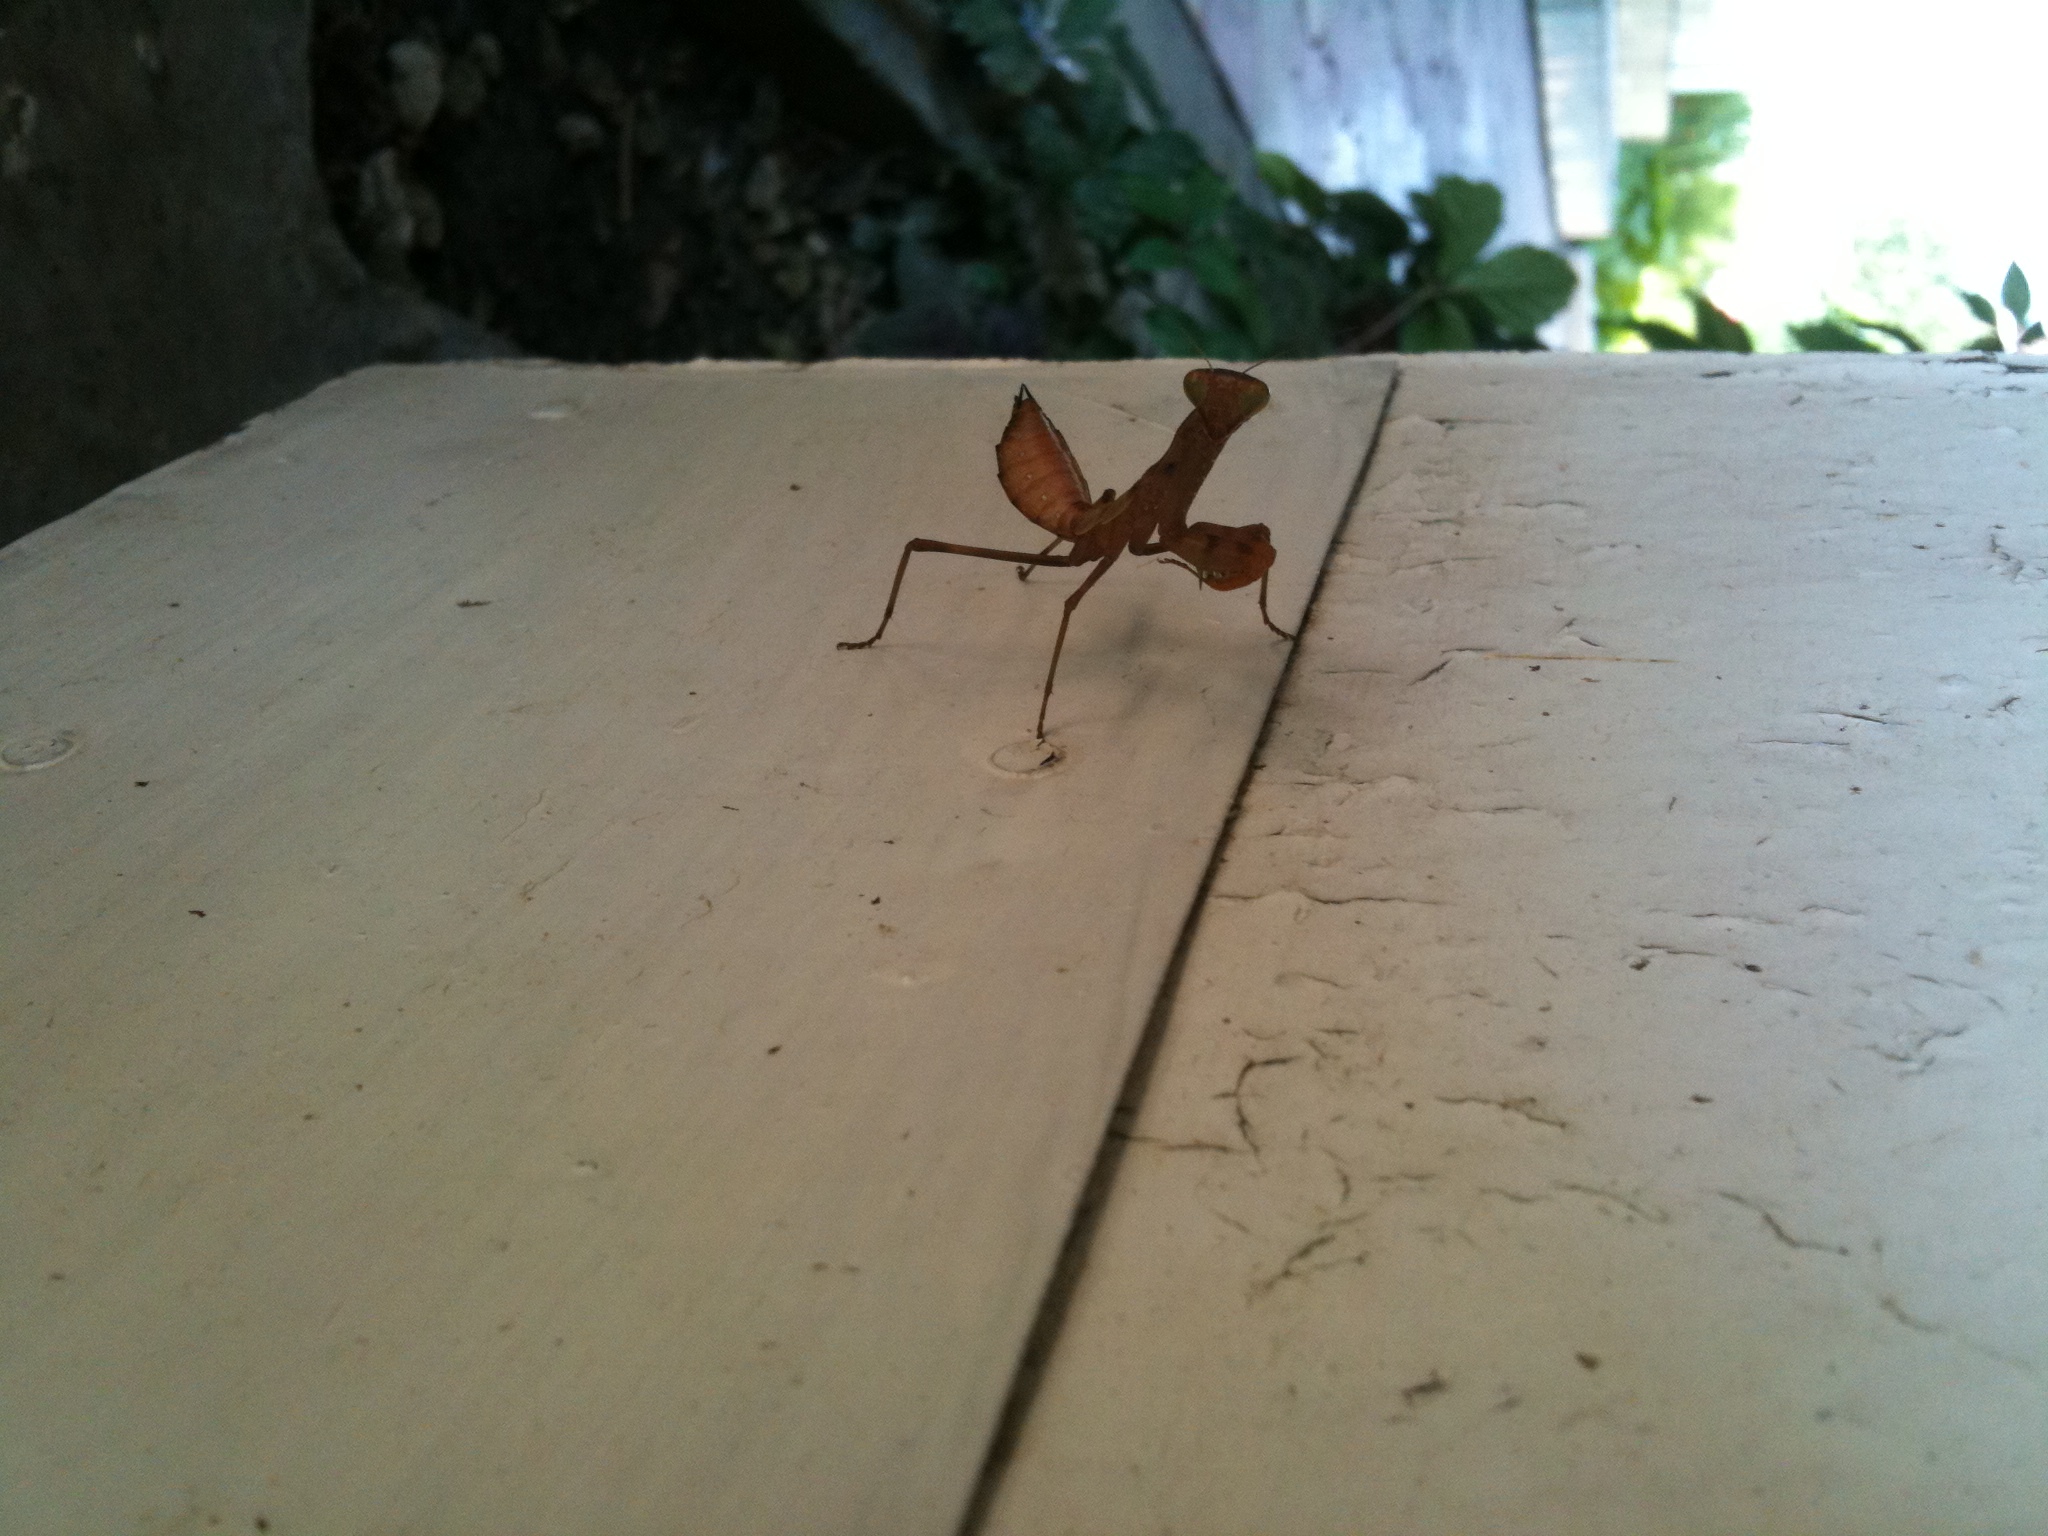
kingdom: Animalia
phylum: Arthropoda
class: Insecta
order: Mantodea
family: Mantidae
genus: Hierodula
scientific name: Hierodula transcaucasica
